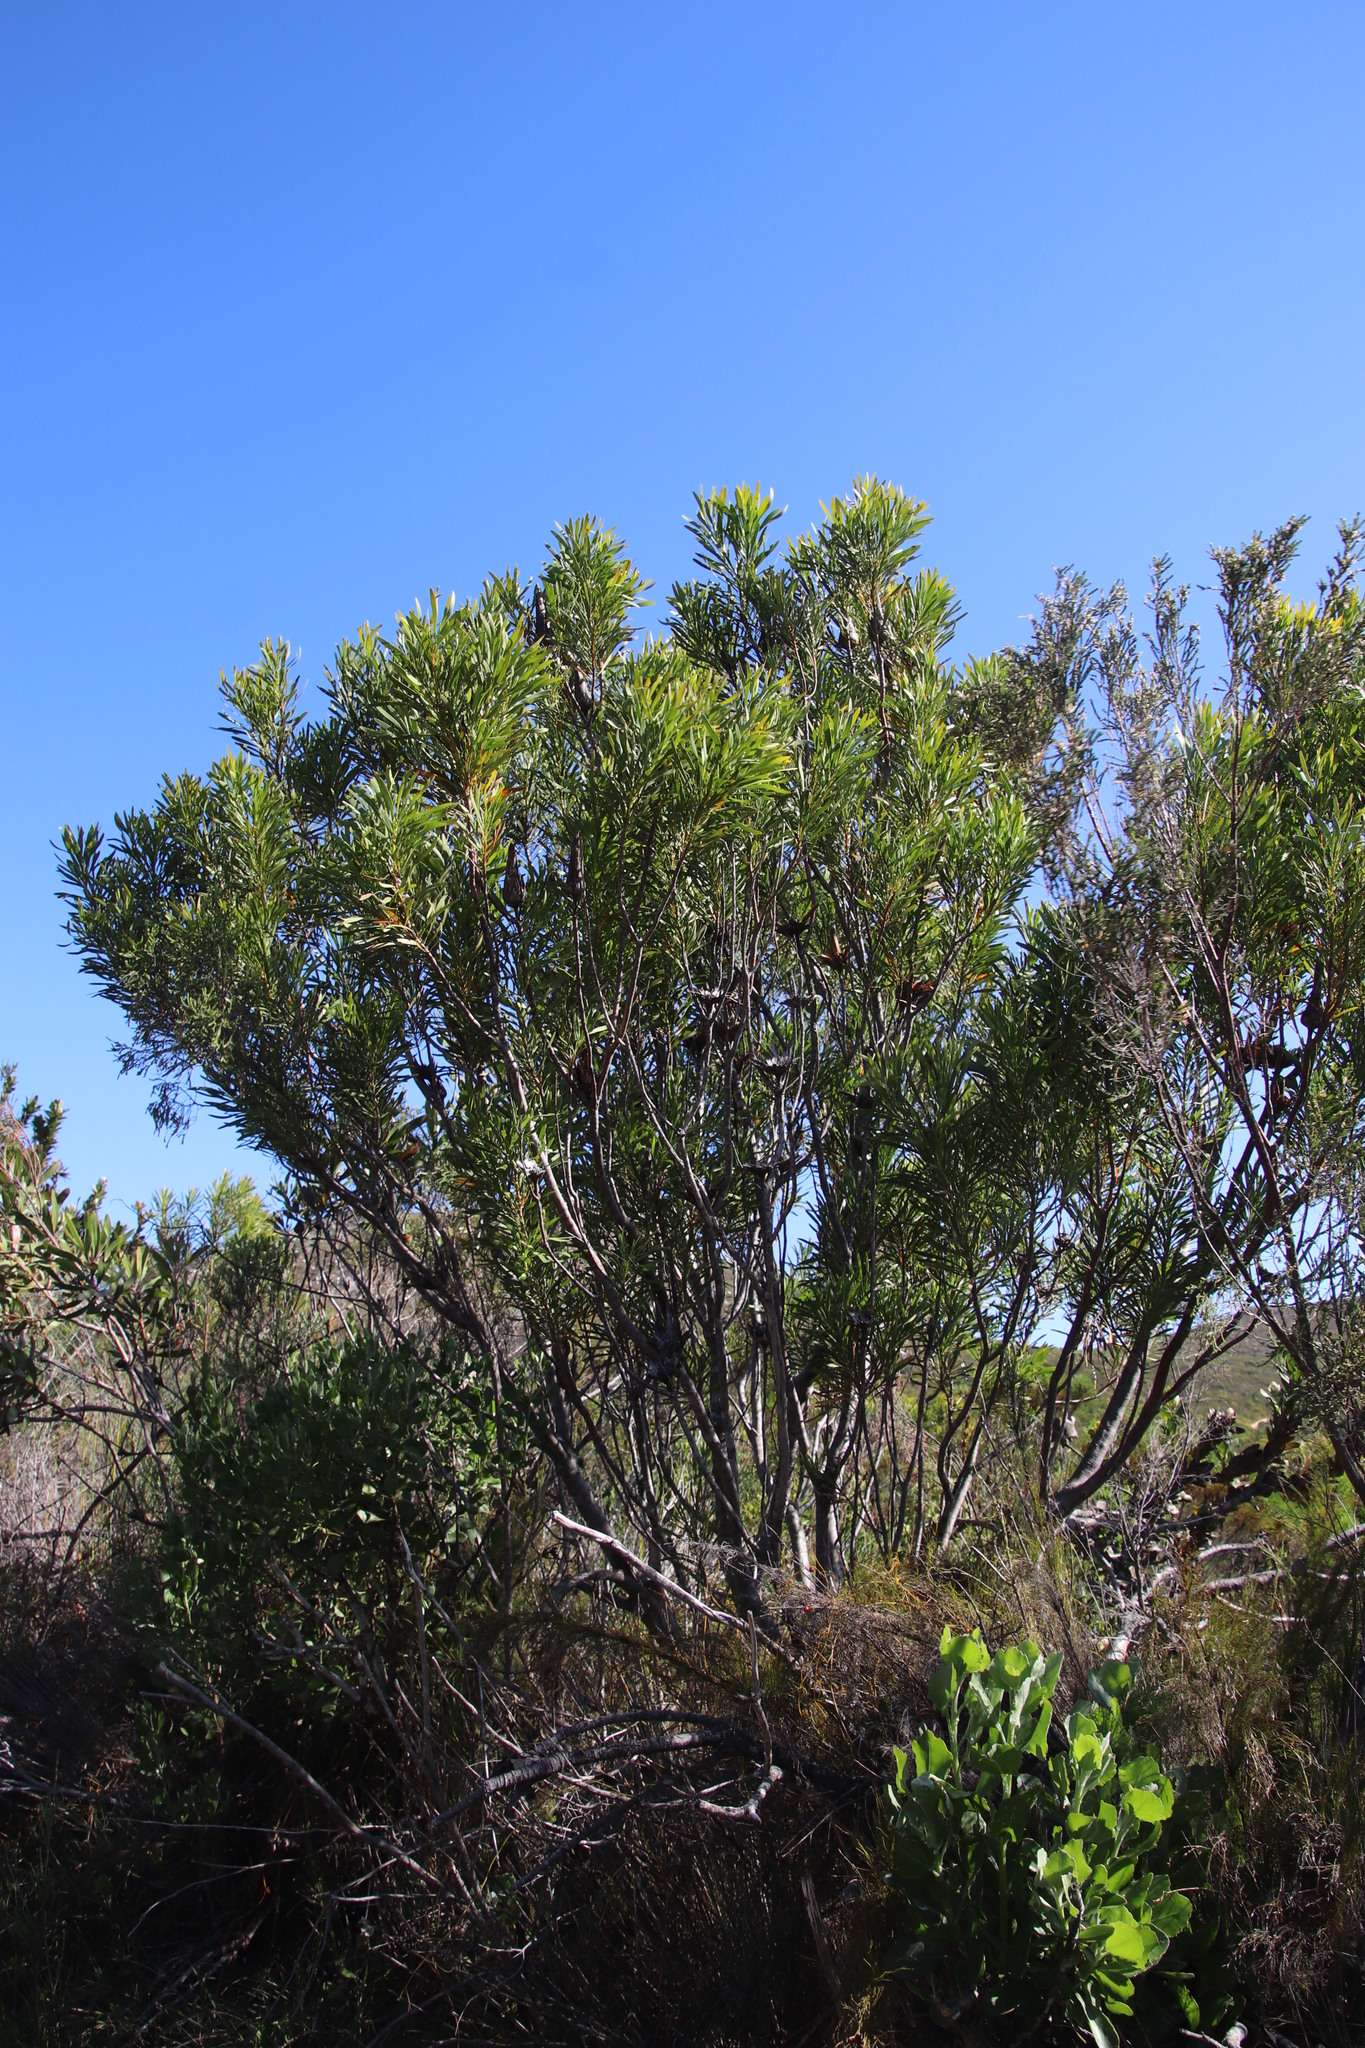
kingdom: Plantae
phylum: Tracheophyta
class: Magnoliopsida
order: Proteales
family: Proteaceae
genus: Protea
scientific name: Protea repens
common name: Sugarbush
